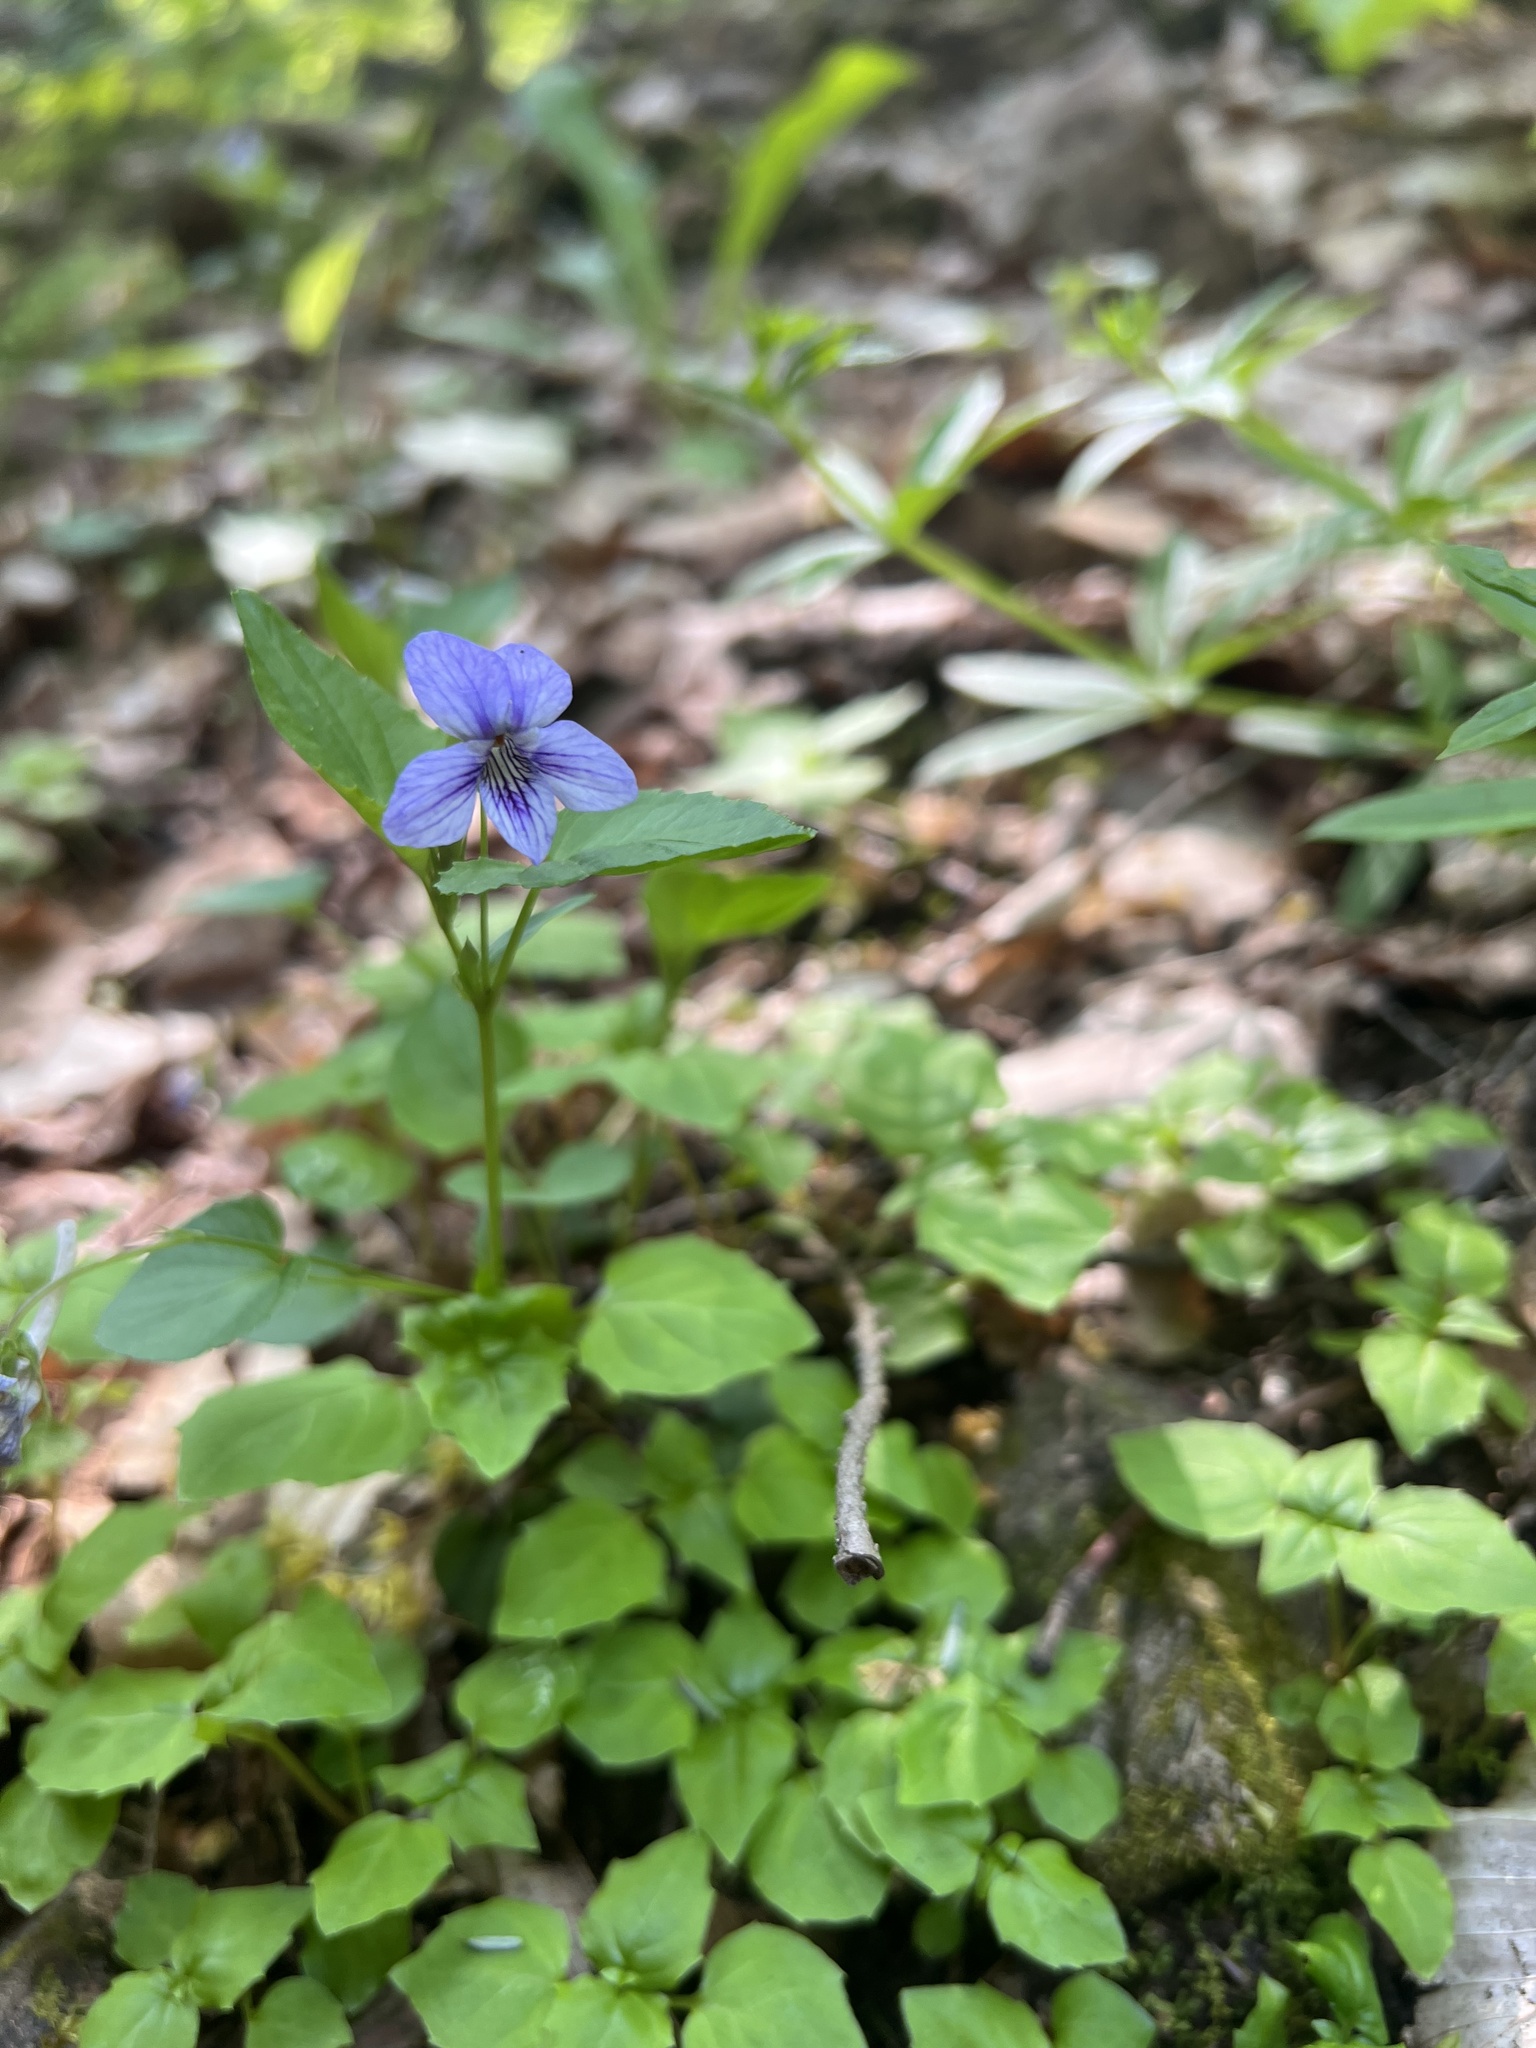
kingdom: Plantae
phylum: Tracheophyta
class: Magnoliopsida
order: Malpighiales
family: Violaceae
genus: Viola
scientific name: Viola rostrata
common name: Long-spur violet
